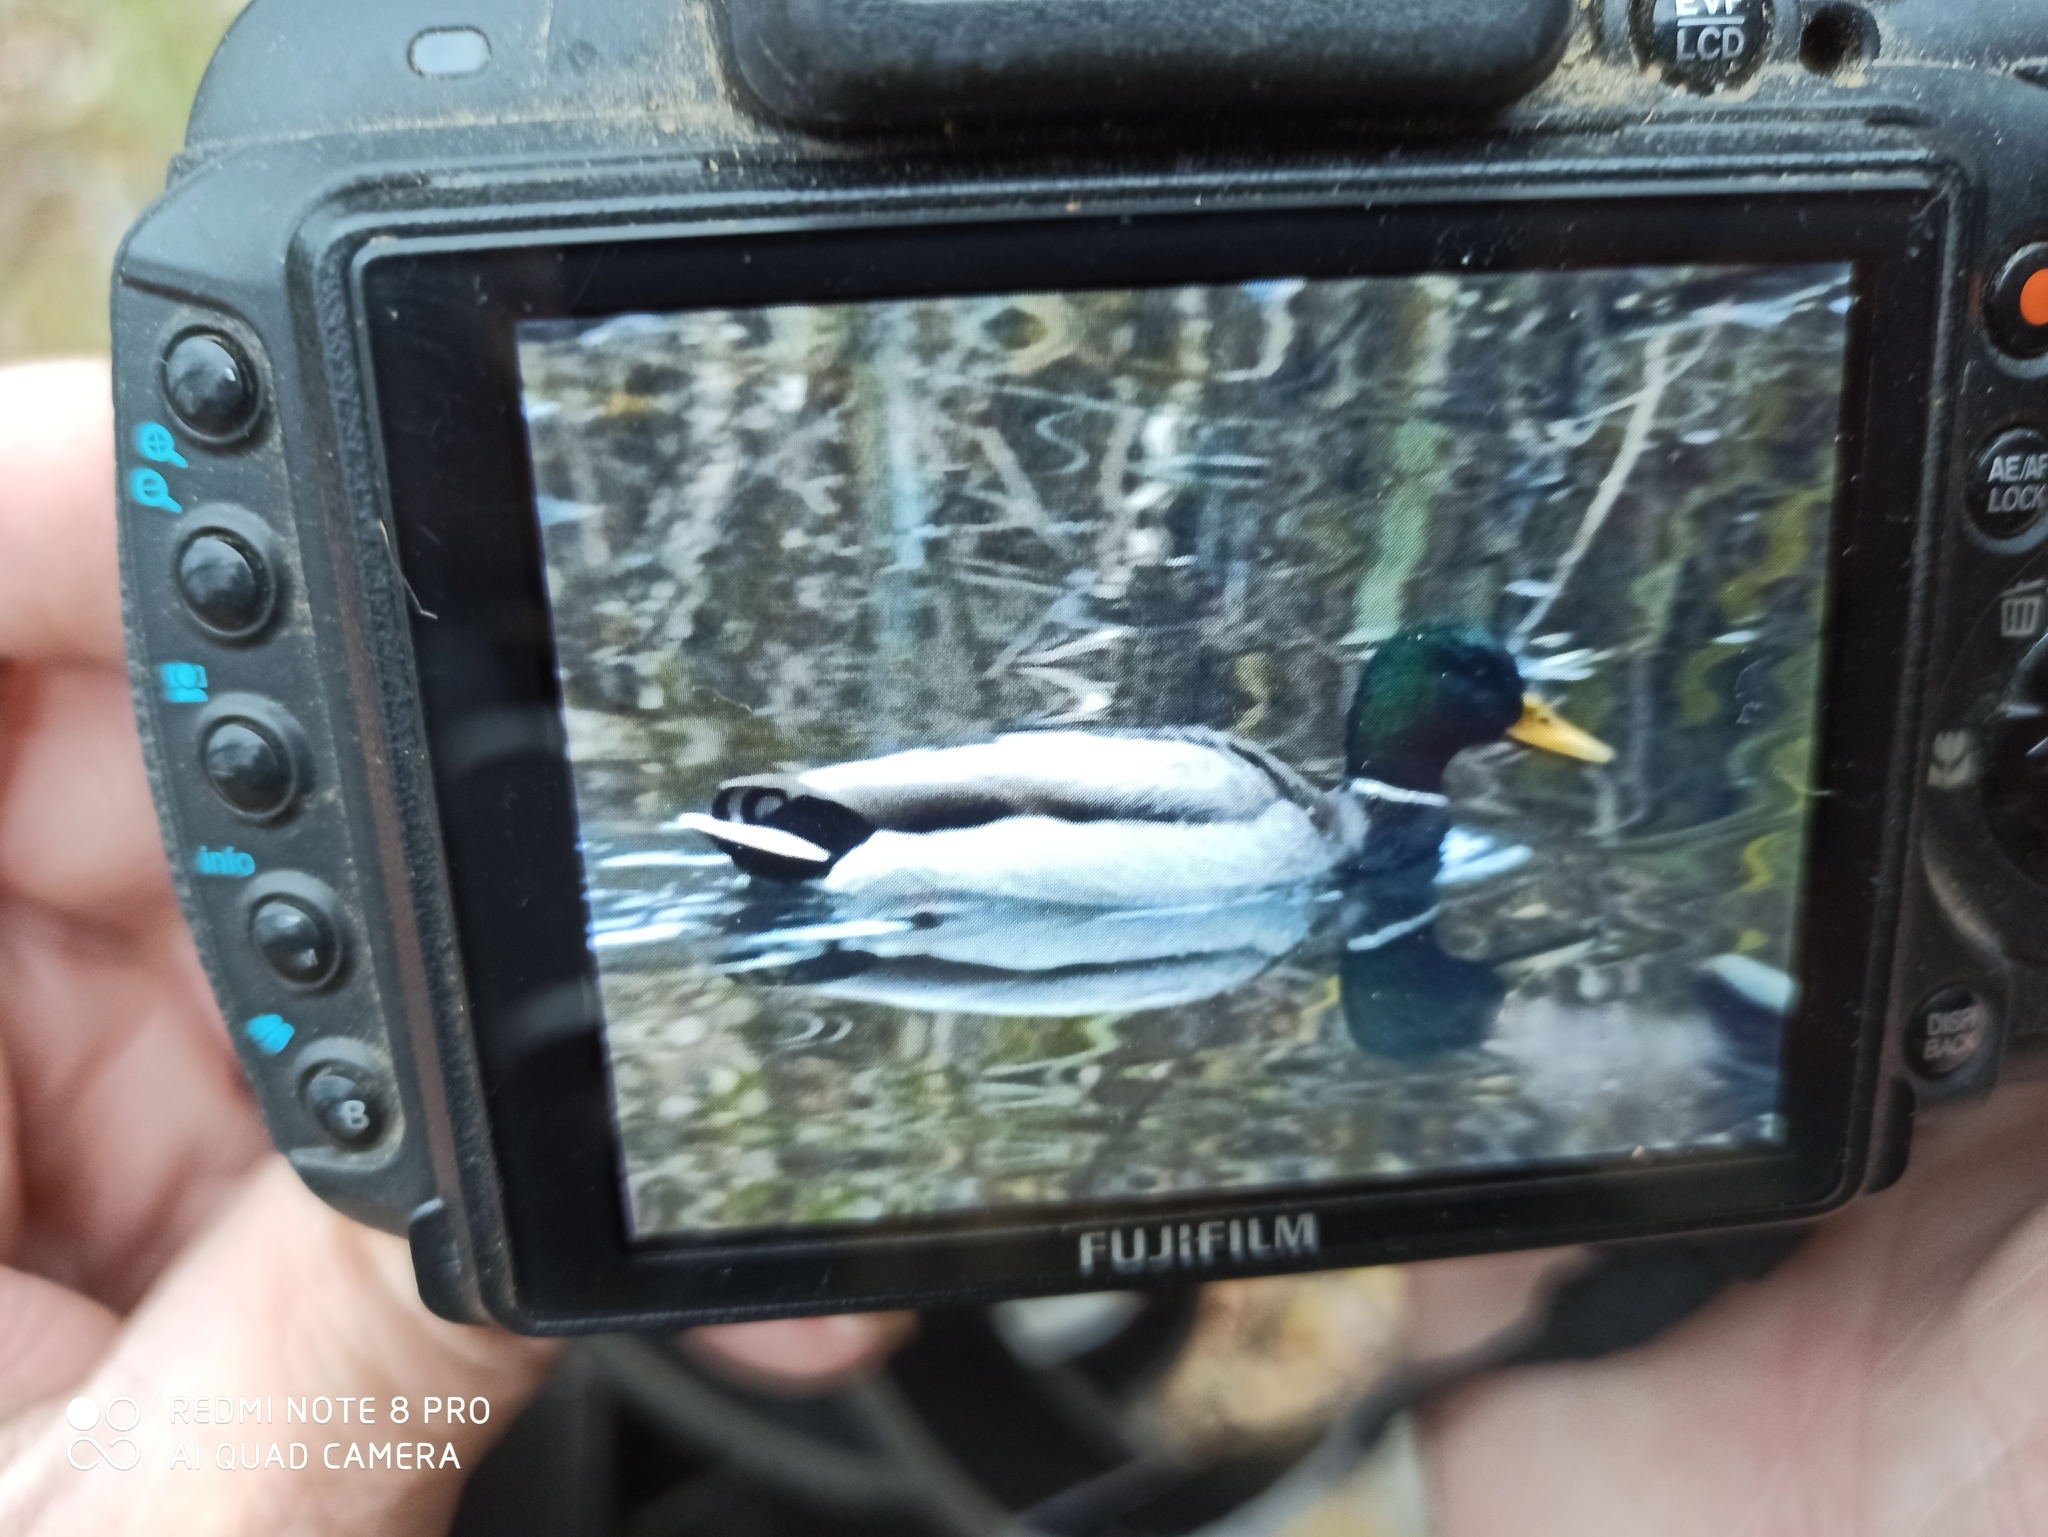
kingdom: Animalia
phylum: Chordata
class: Aves
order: Anseriformes
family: Anatidae
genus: Anas
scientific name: Anas platyrhynchos
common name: Mallard
